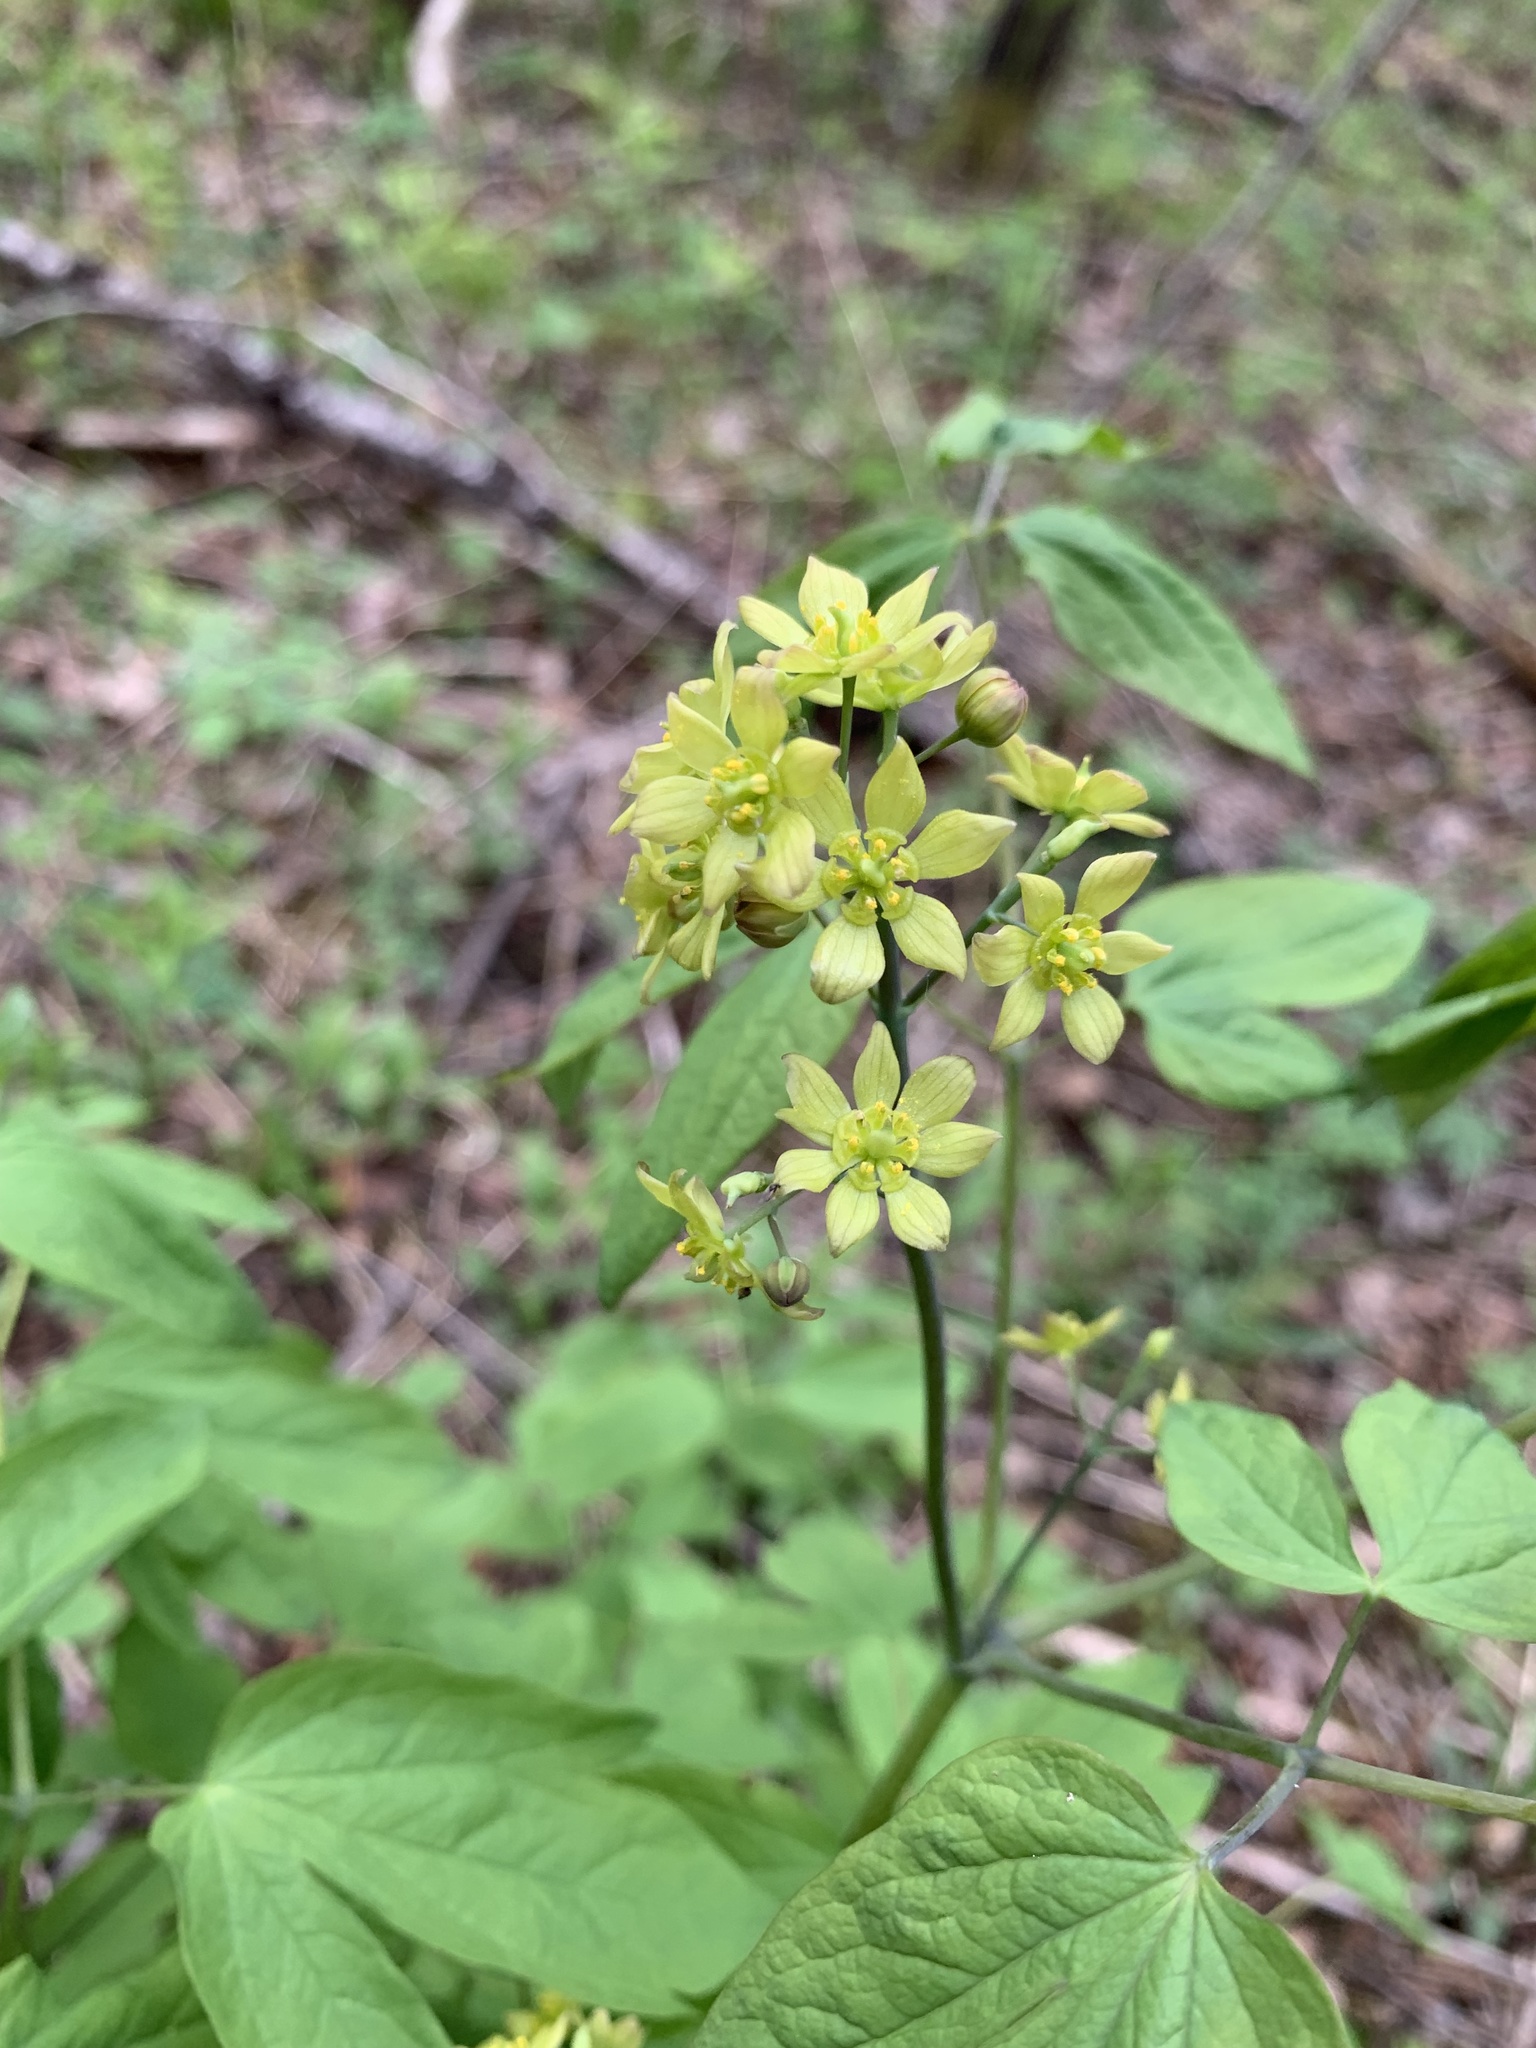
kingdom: Plantae
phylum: Tracheophyta
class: Magnoliopsida
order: Ranunculales
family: Berberidaceae
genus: Caulophyllum
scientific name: Caulophyllum thalictroides
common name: Blue cohosh
